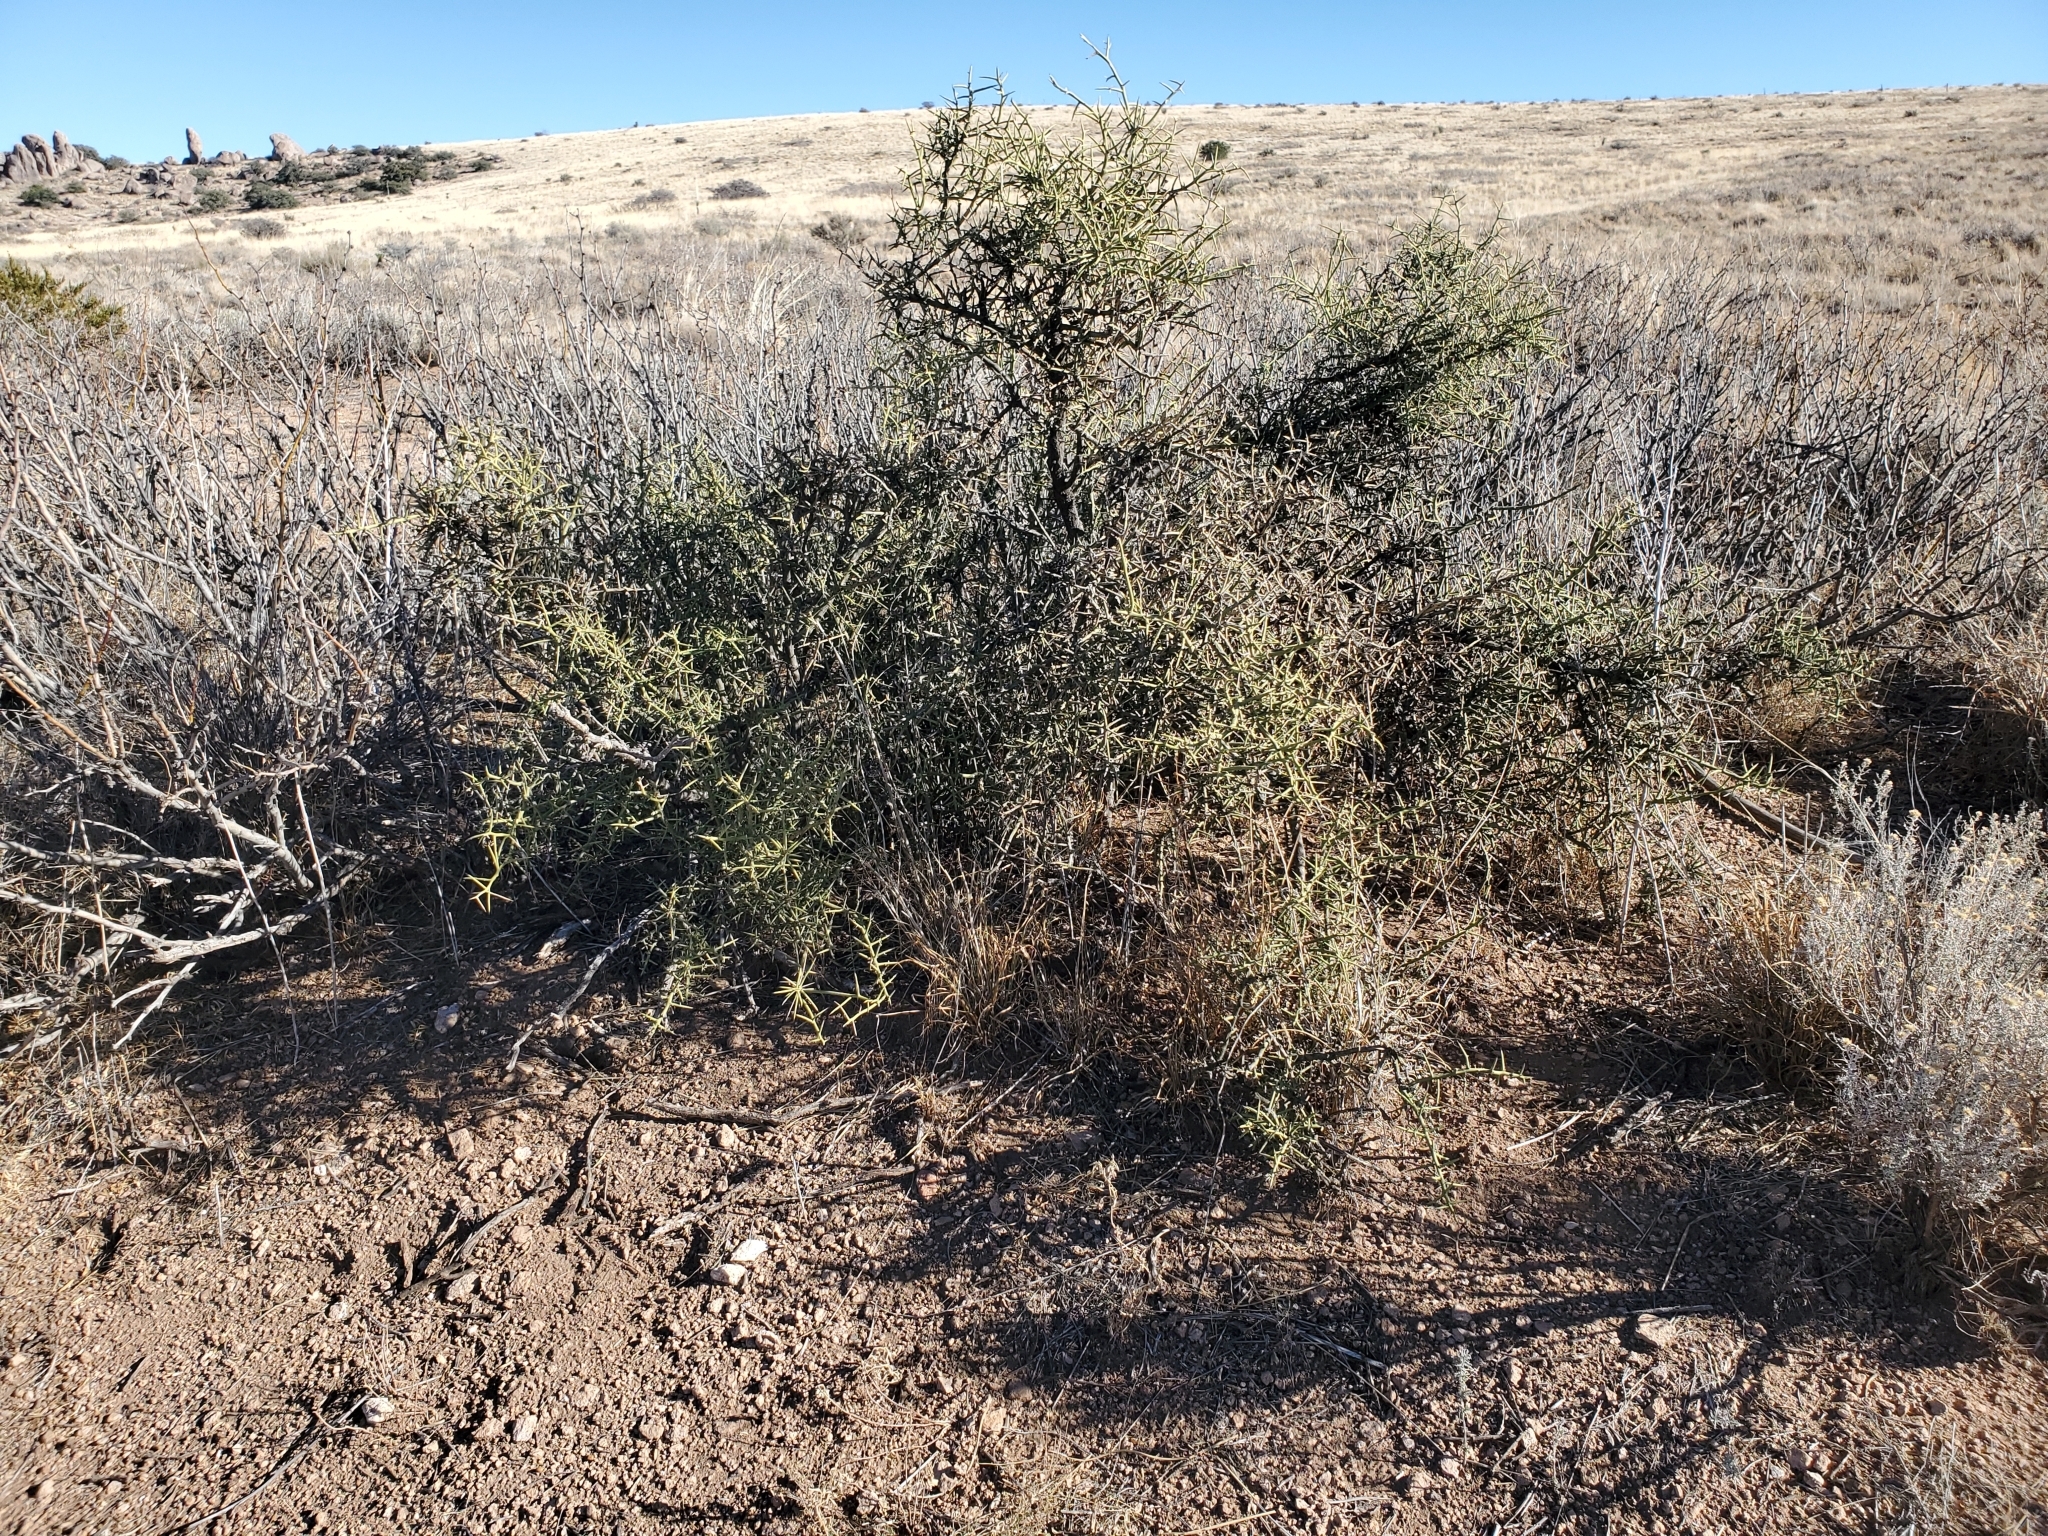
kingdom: Plantae
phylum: Tracheophyta
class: Magnoliopsida
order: Brassicales
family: Koeberliniaceae
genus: Koeberlinia
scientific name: Koeberlinia spinosa
